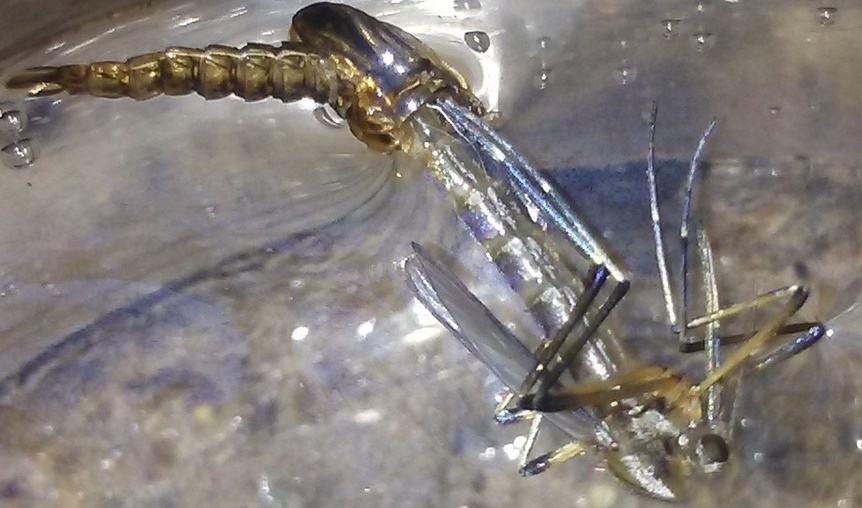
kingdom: Animalia
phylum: Arthropoda
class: Insecta
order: Diptera
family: Culicidae
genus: Psorophora
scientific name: Psorophora howardii
